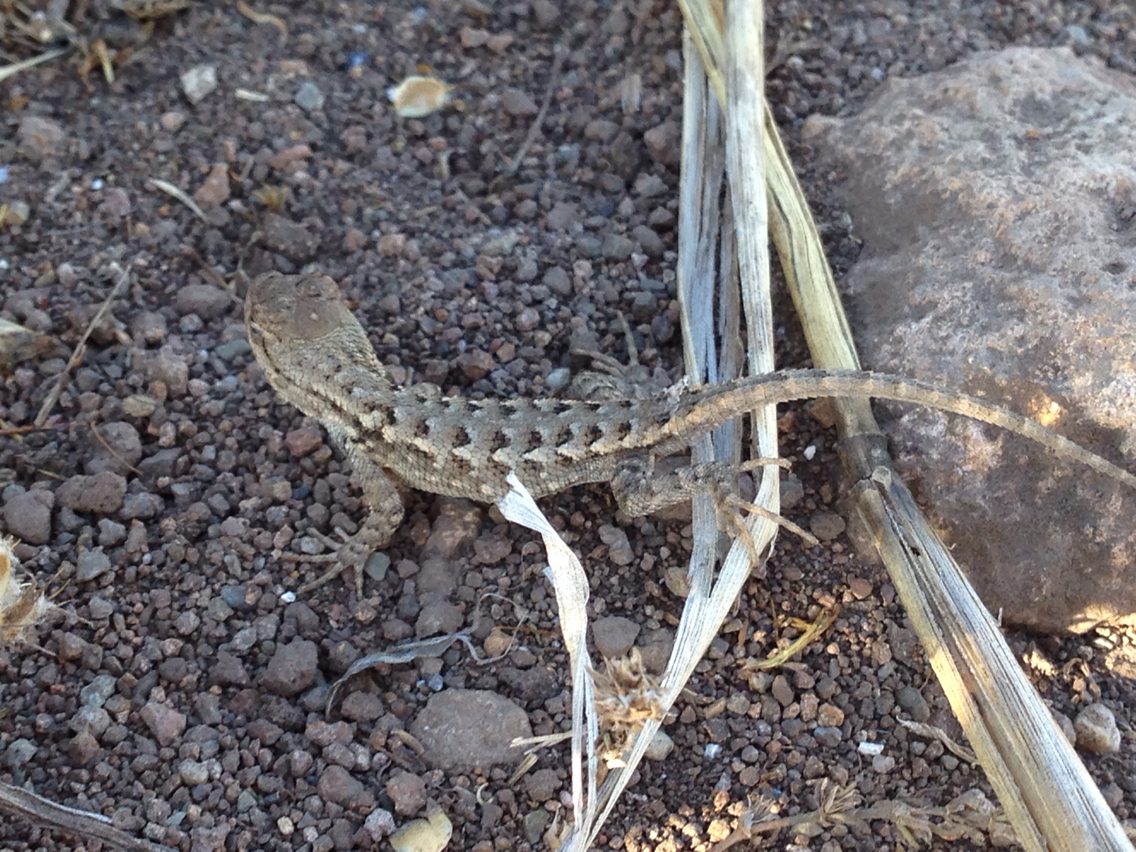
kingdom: Animalia
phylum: Chordata
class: Squamata
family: Phrynosomatidae
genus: Sceloporus
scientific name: Sceloporus occidentalis
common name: Western fence lizard
